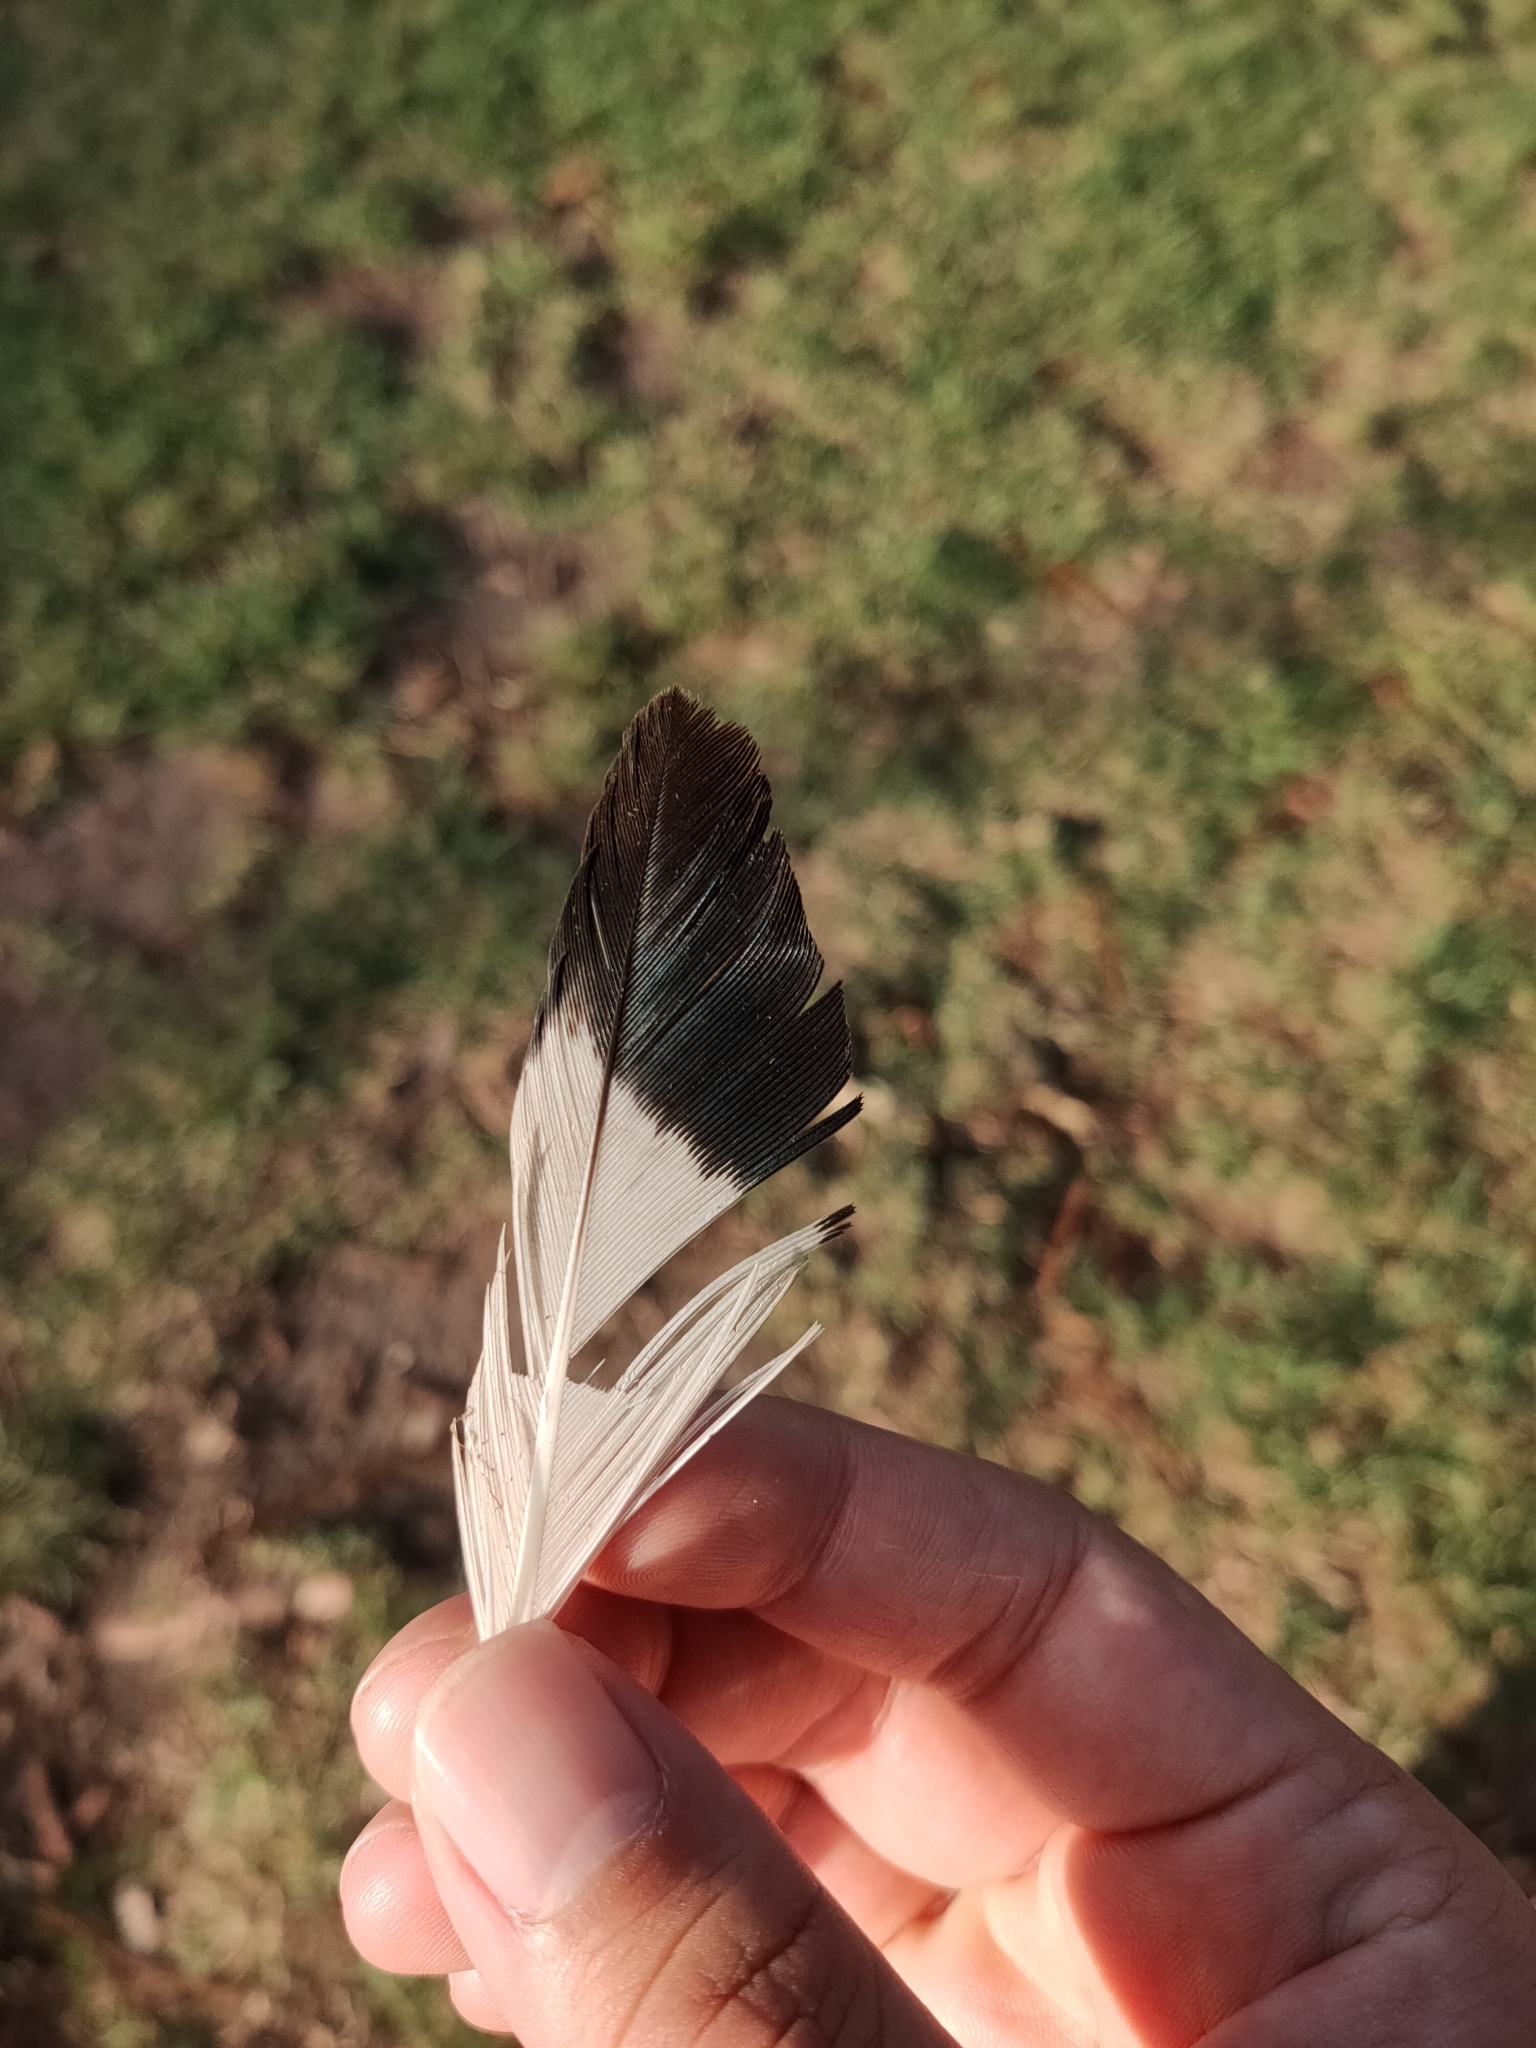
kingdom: Animalia
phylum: Chordata
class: Aves
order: Pelecaniformes
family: Threskiornithidae
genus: Threskiornis
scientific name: Threskiornis molucca
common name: Australian white ibis
